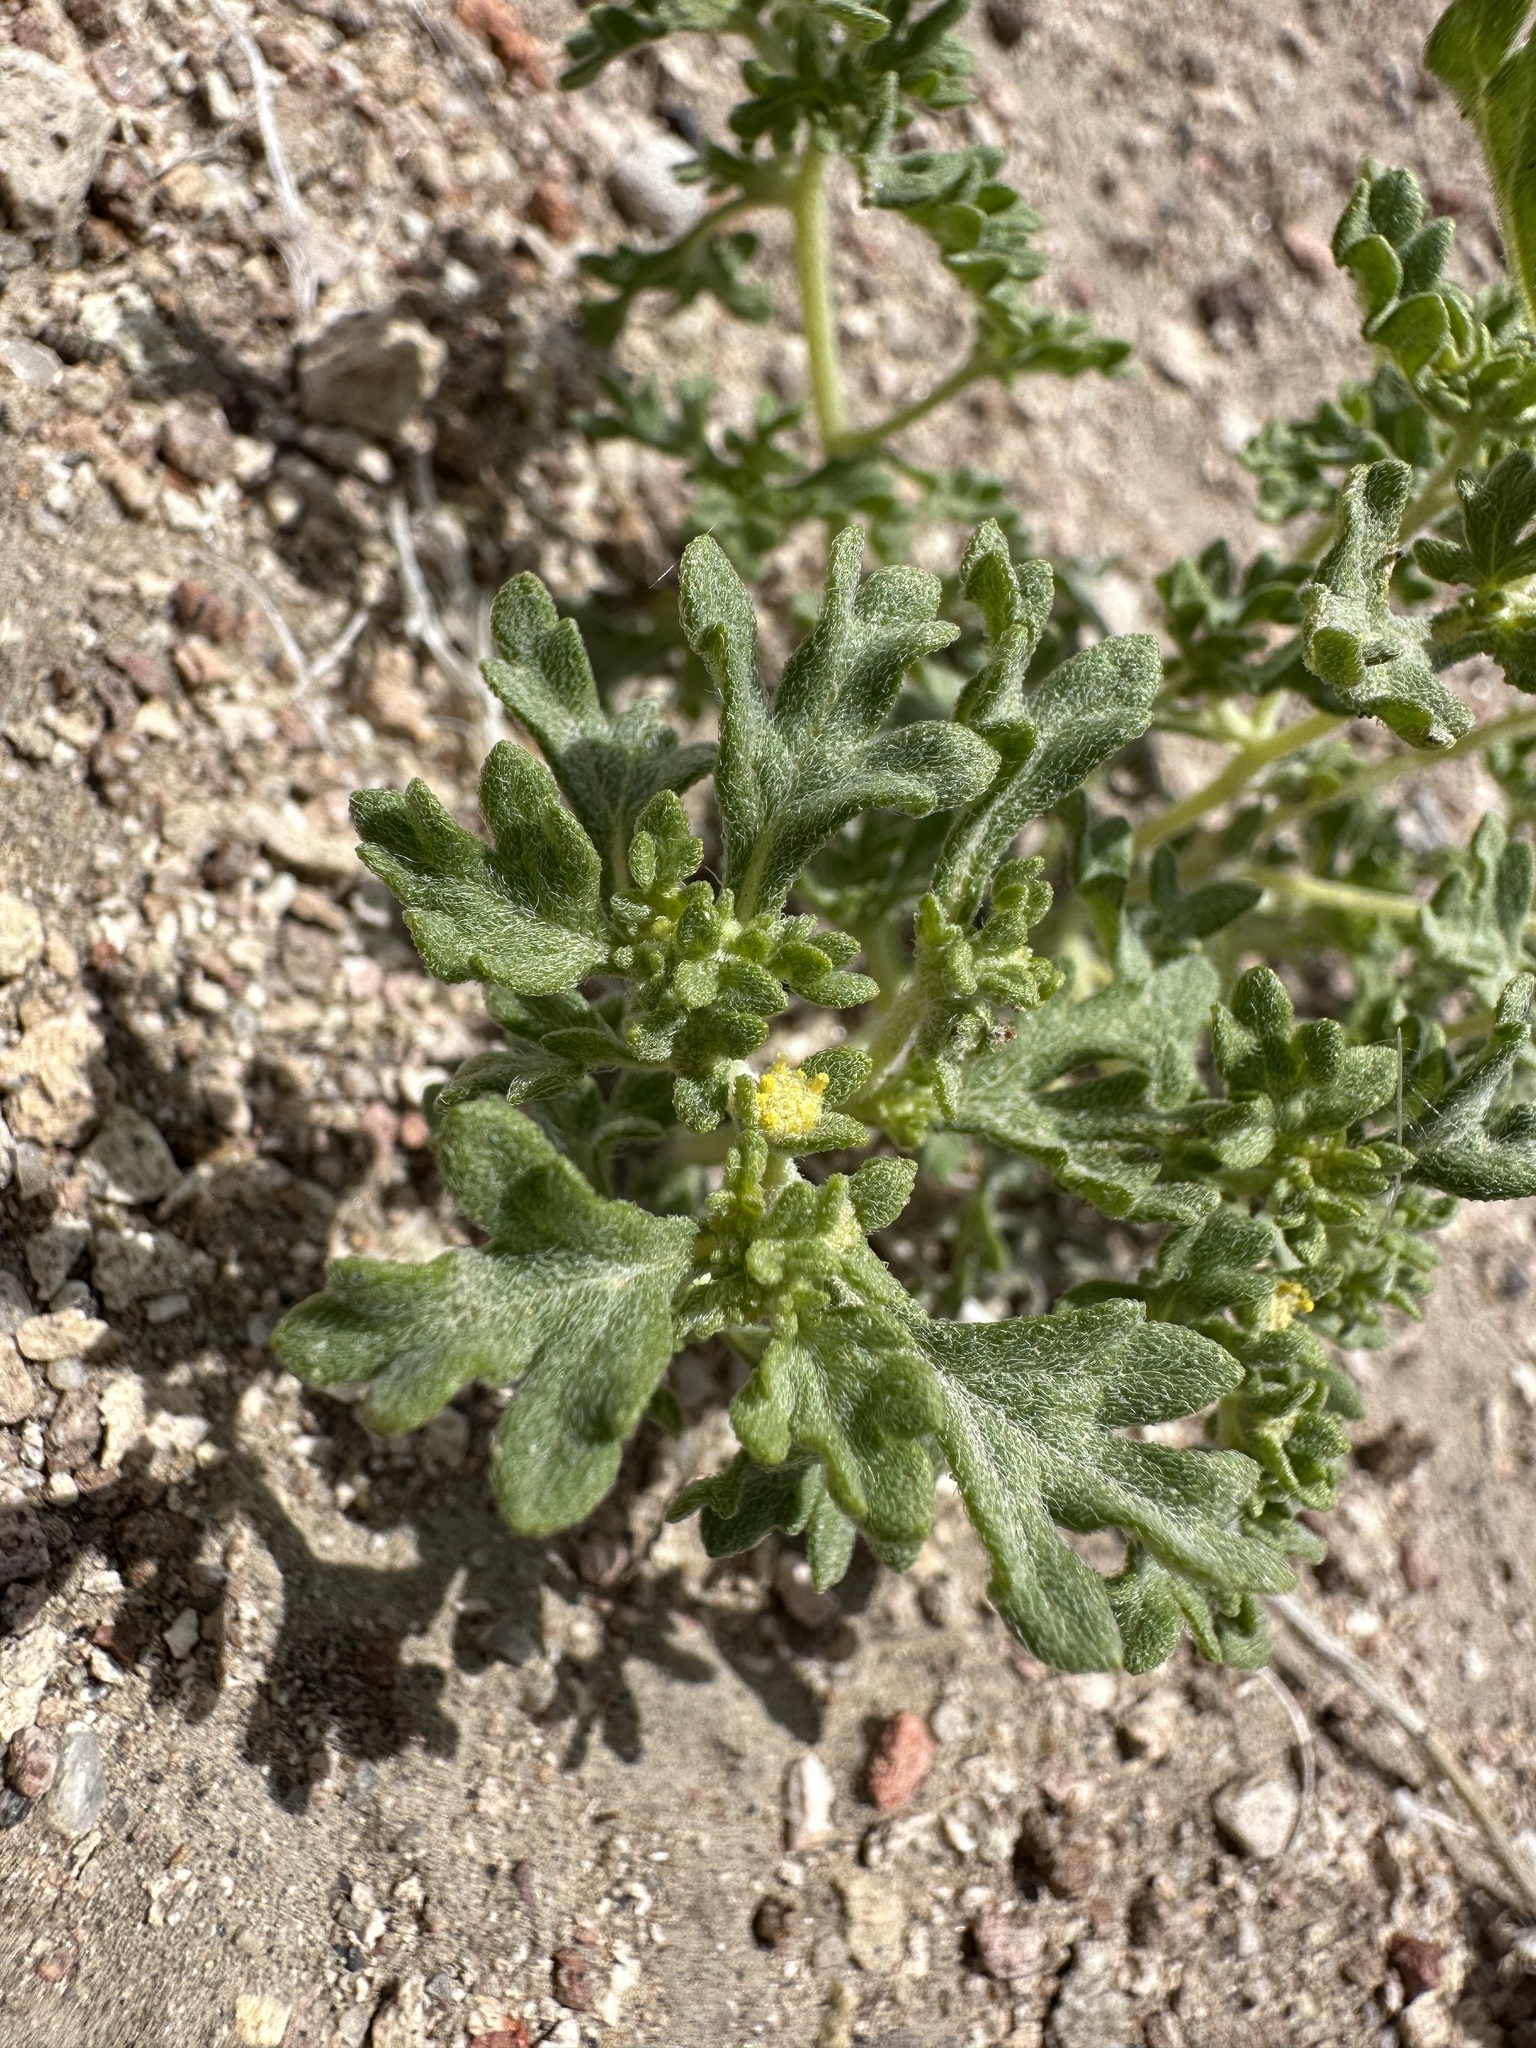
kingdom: Plantae
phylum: Tracheophyta
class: Magnoliopsida
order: Asterales
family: Asteraceae
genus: Euphrosyne
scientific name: Euphrosyne nevadensis
